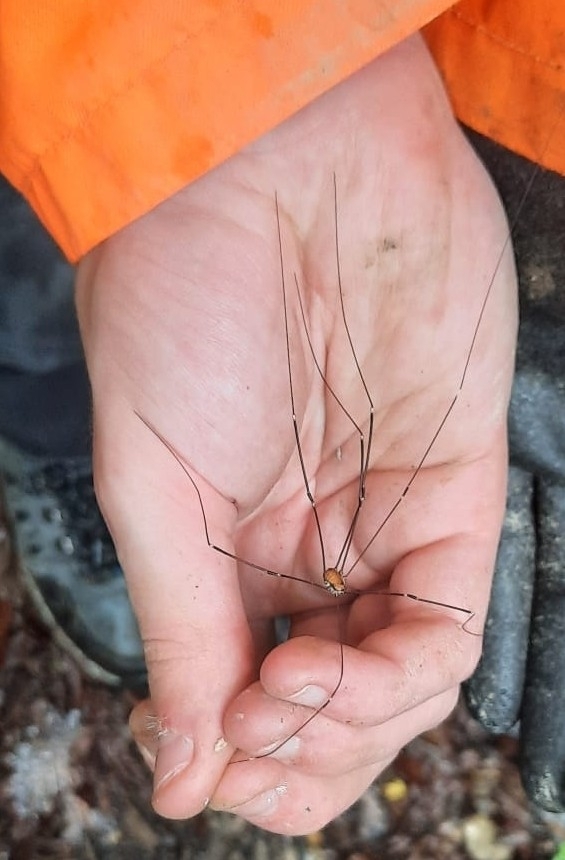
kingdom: Animalia
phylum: Arthropoda
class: Arachnida
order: Opiliones
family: Sclerosomatidae
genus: Leiobunum
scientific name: Leiobunum limbatum
